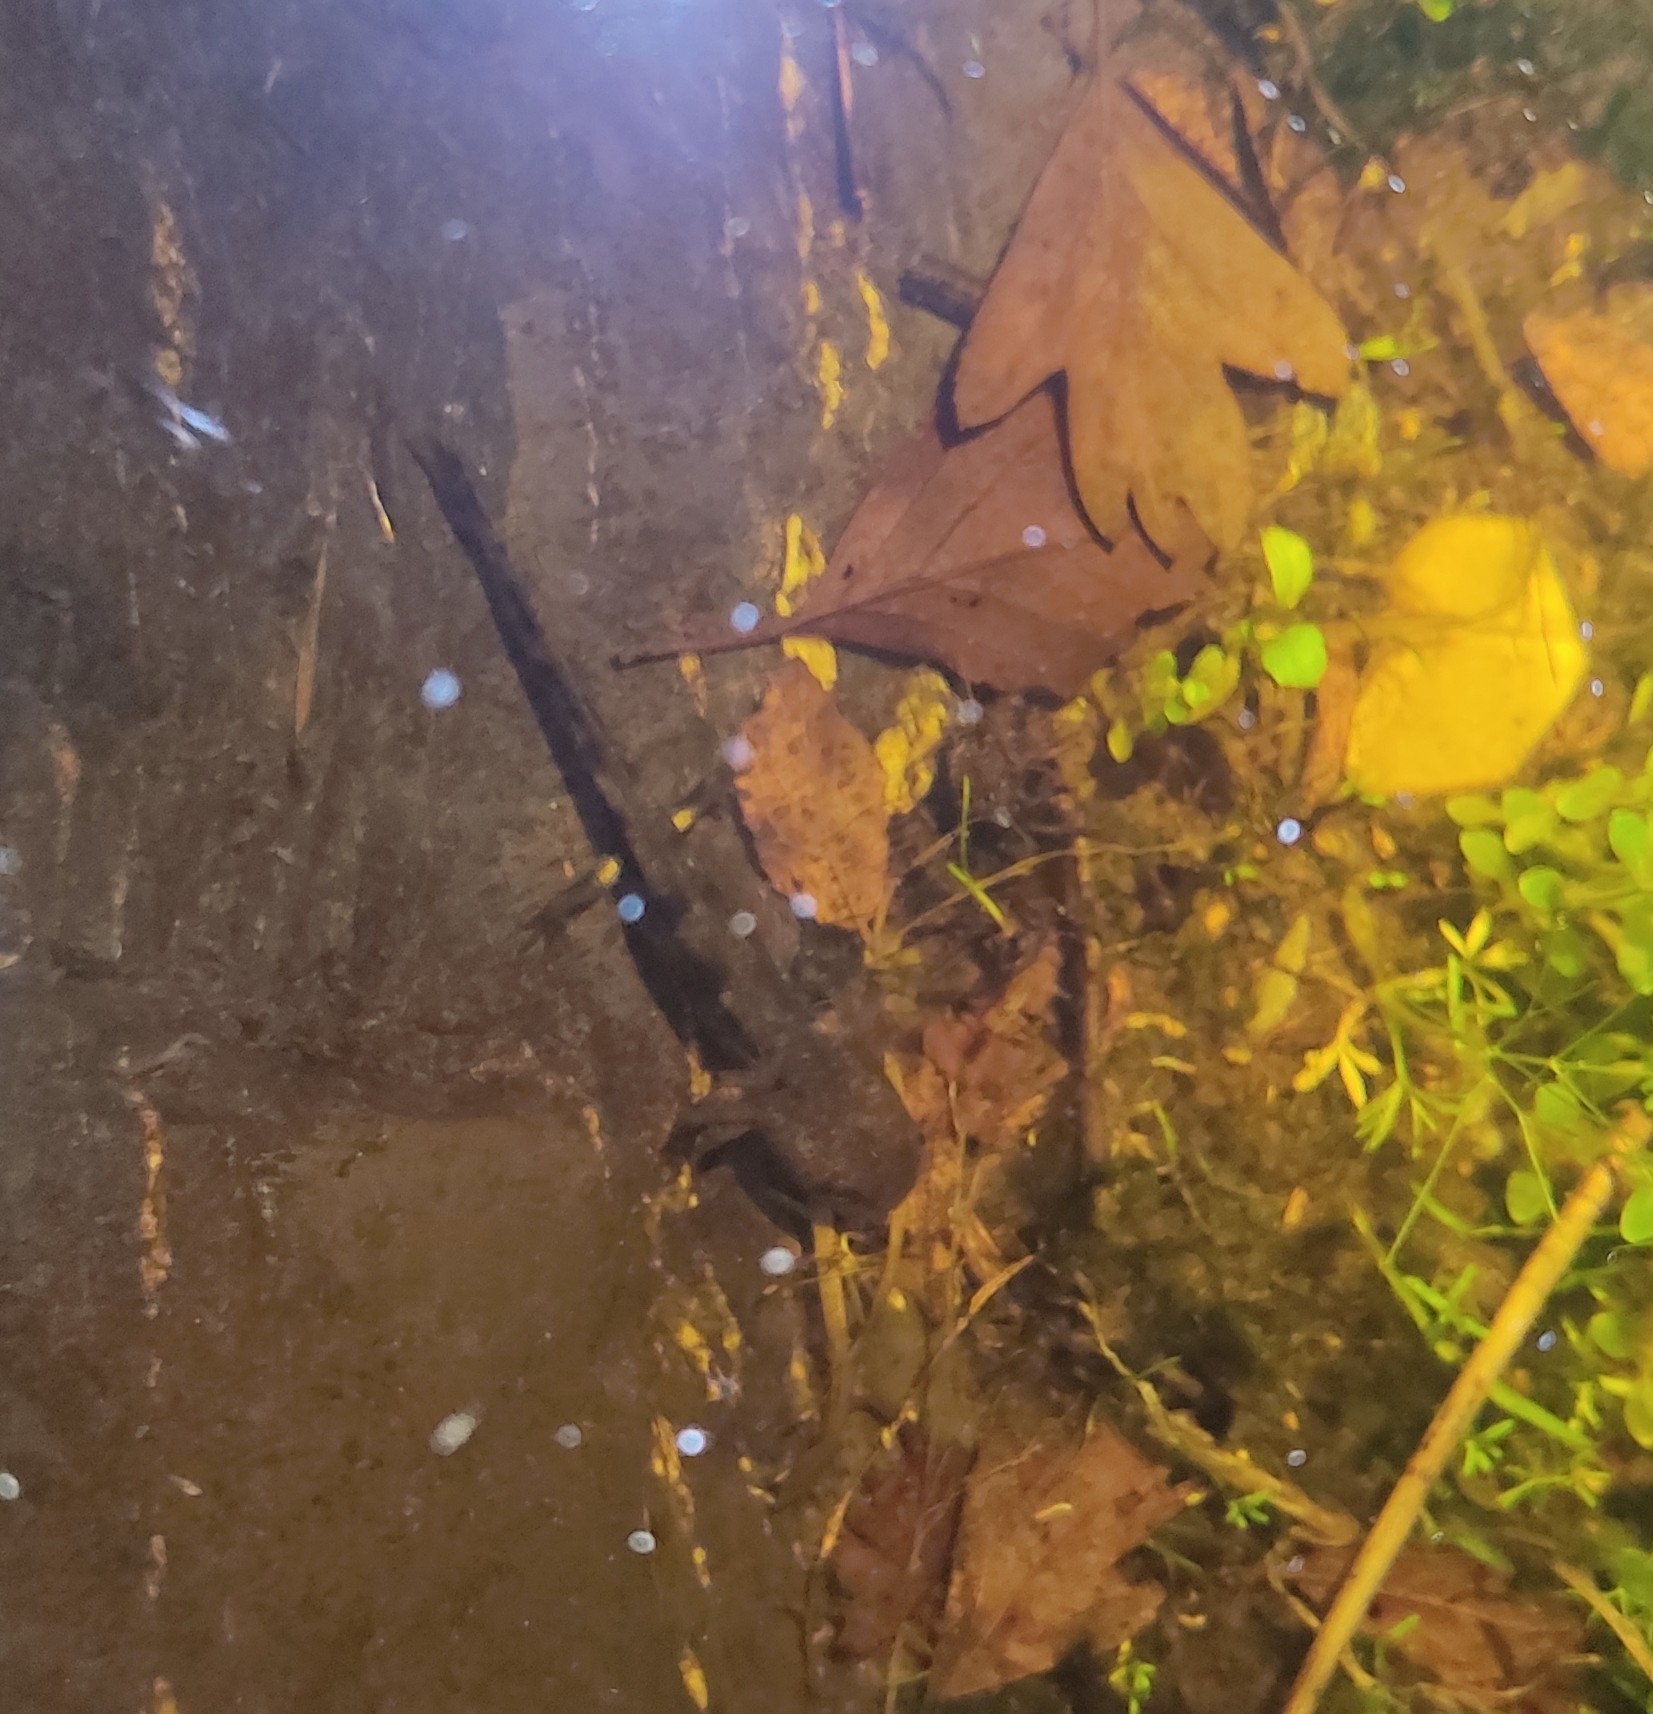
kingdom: Animalia
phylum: Chordata
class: Amphibia
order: Caudata
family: Salamandridae
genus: Salamandra
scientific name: Salamandra salamandra
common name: Fire salamander
